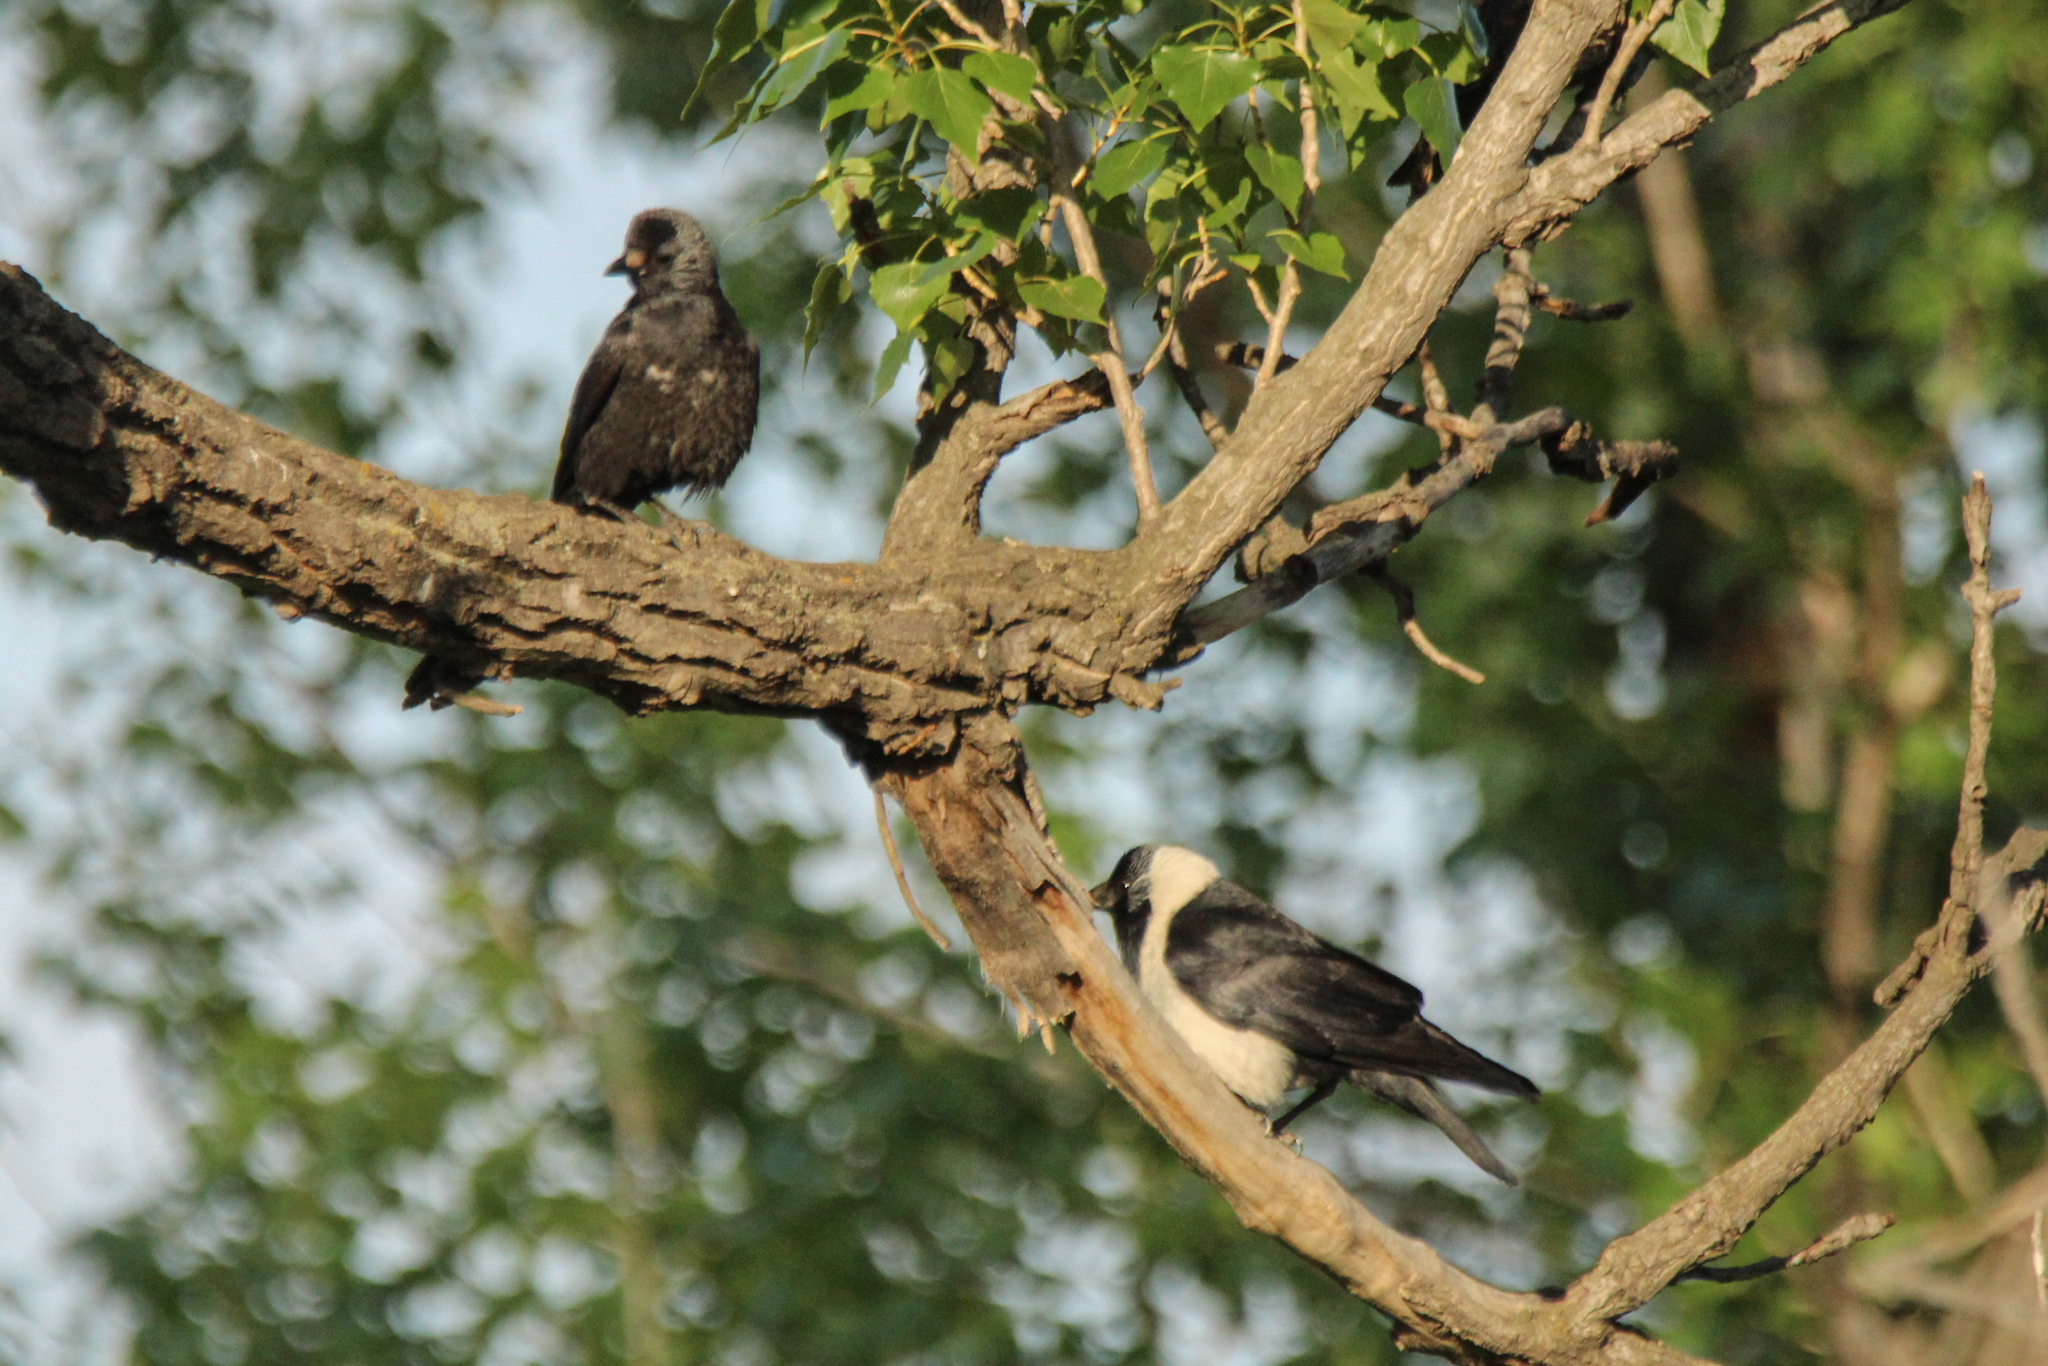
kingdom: Animalia
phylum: Chordata
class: Aves
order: Passeriformes
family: Corvidae
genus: Coloeus
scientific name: Coloeus dauuricus
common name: Daurian jackdaw
